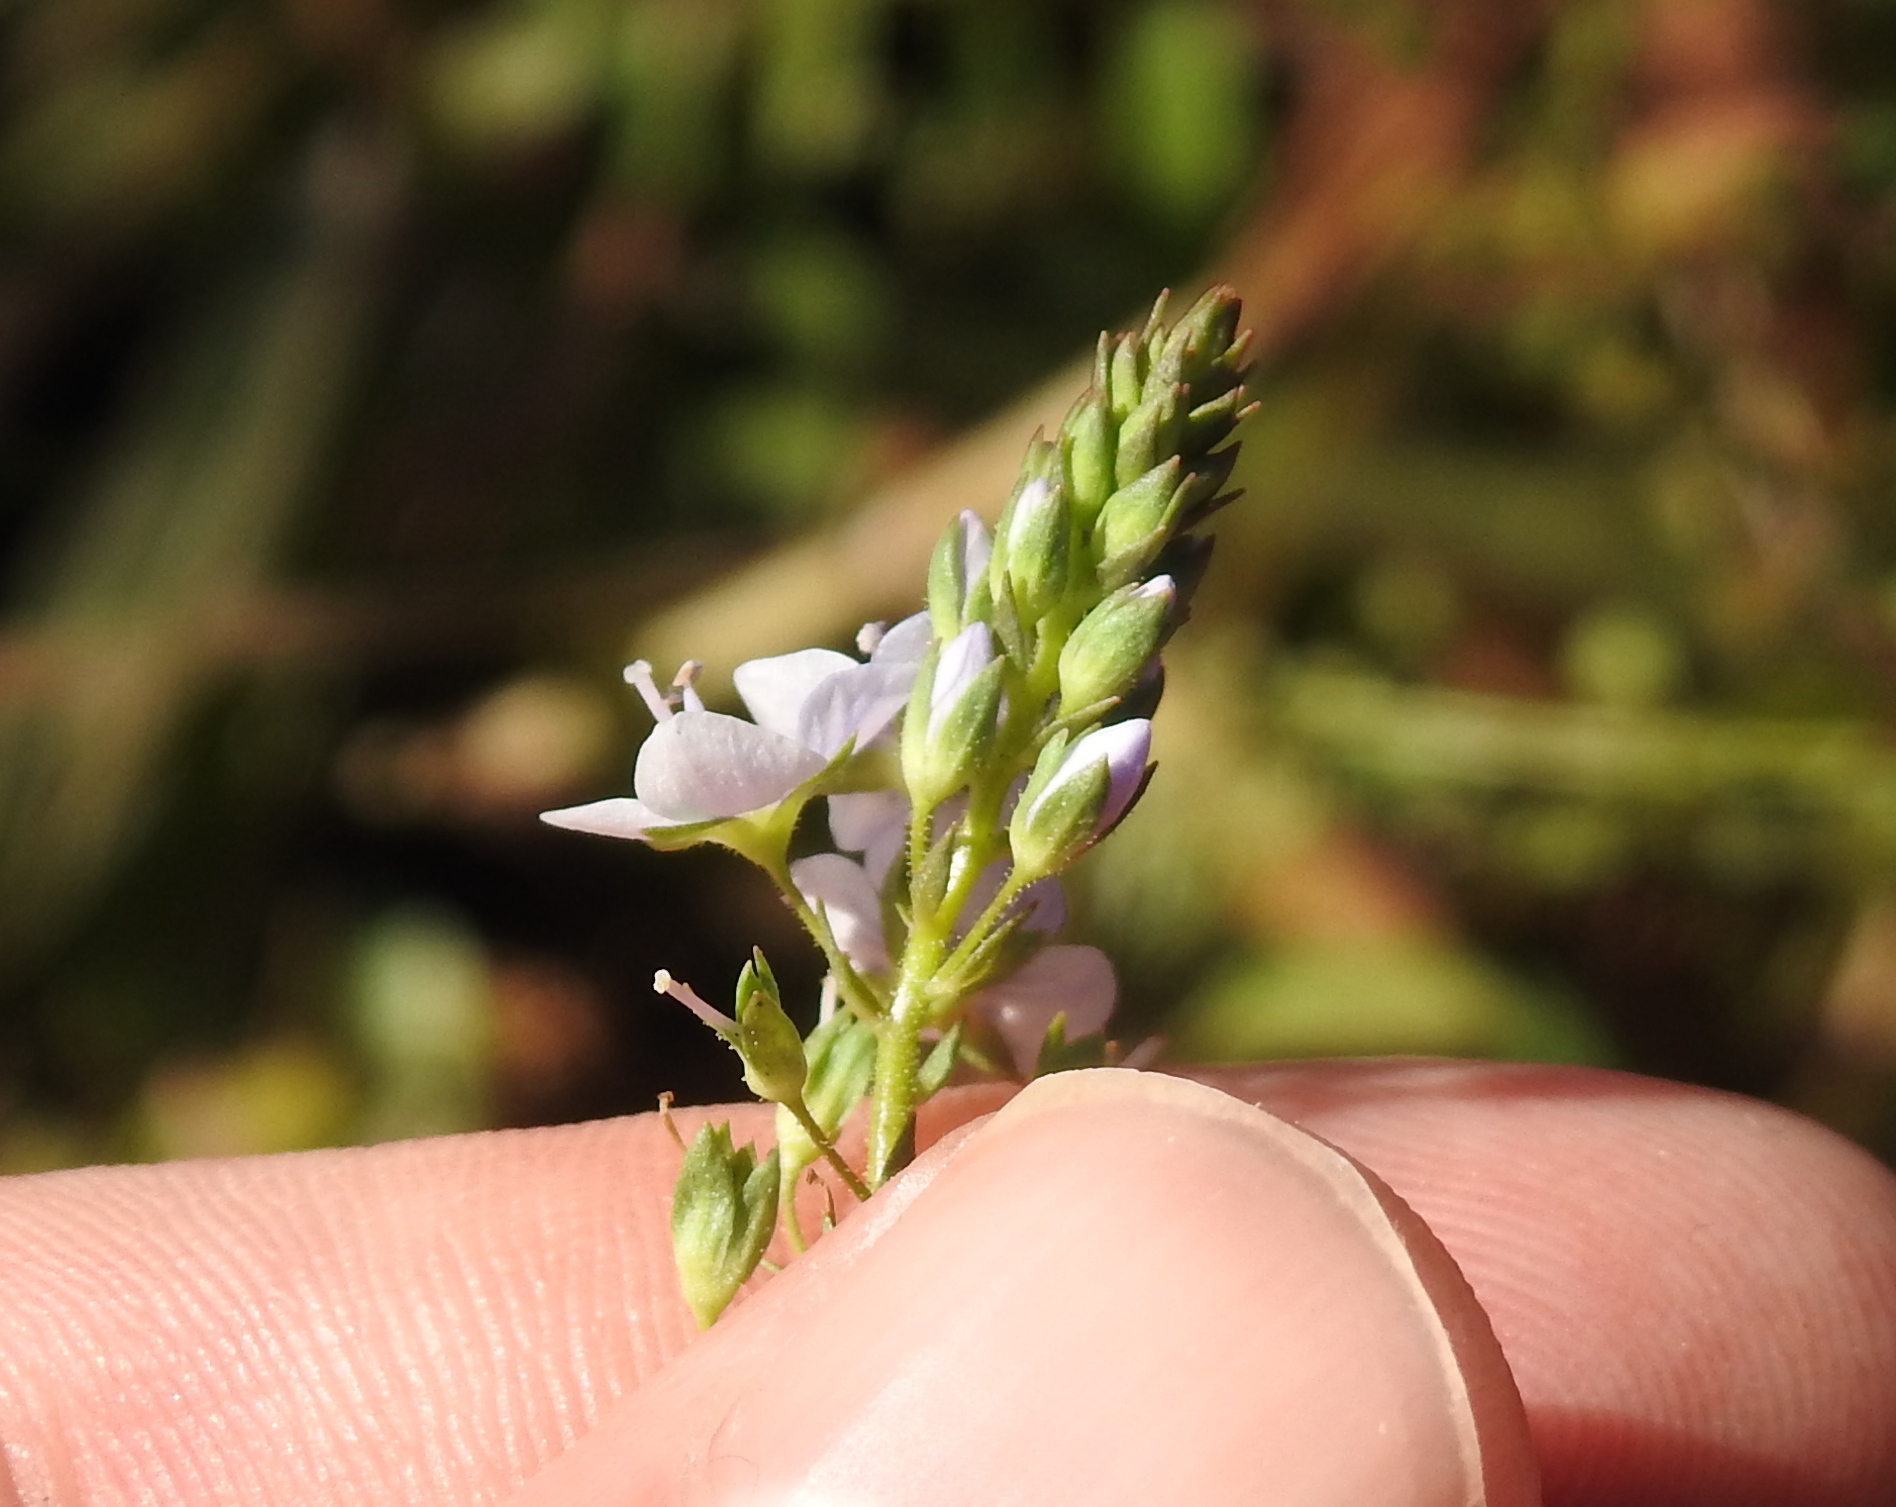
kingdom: Plantae
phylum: Tracheophyta
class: Magnoliopsida
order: Lamiales
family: Plantaginaceae
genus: Veronica
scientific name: Veronica anagallis-aquatica
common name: Water speedwell
